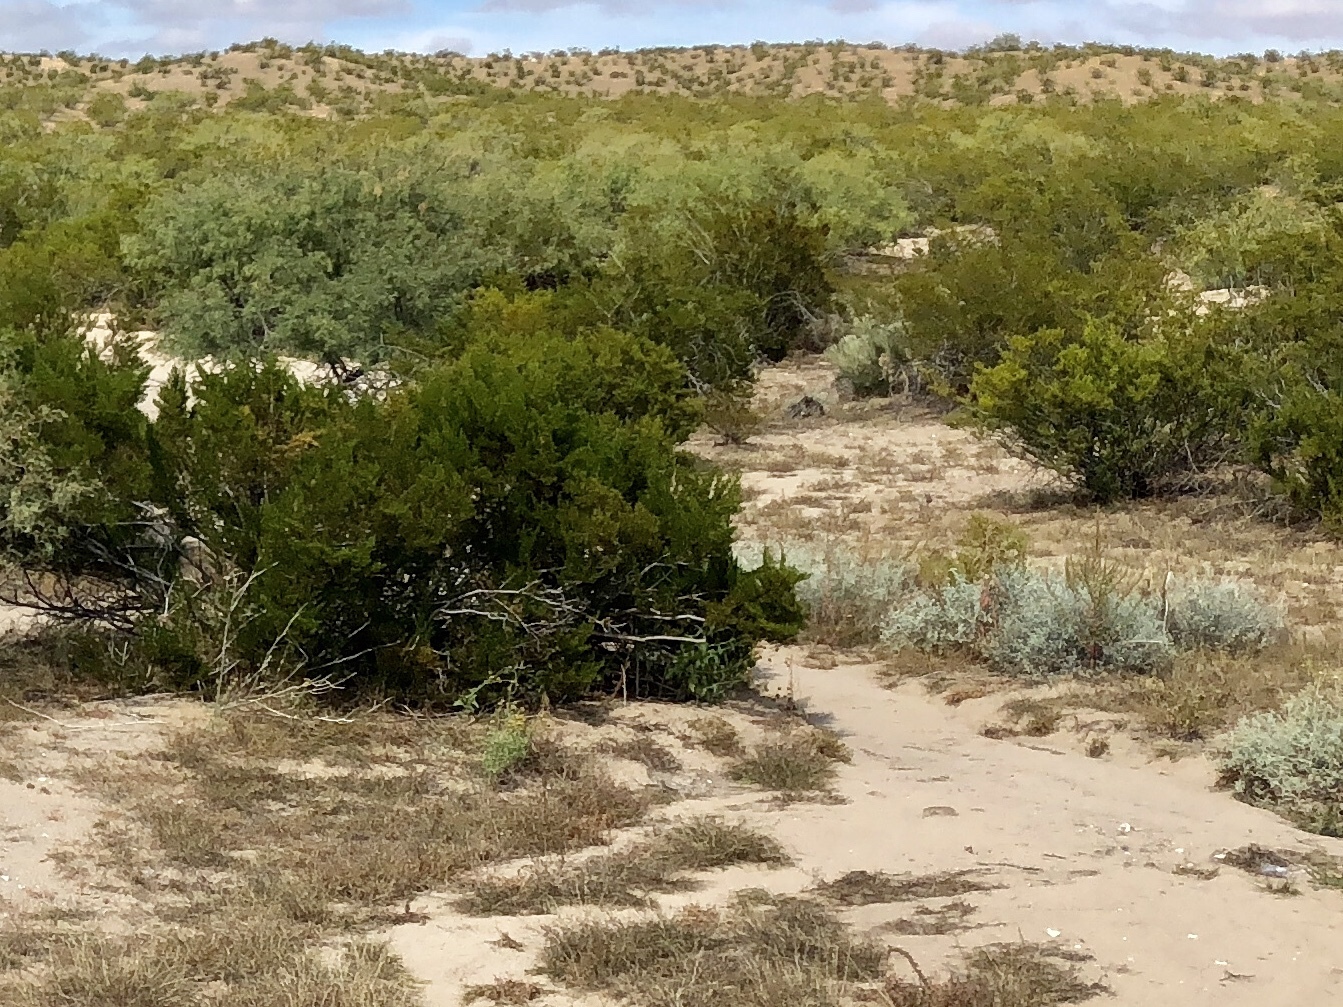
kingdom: Plantae
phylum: Tracheophyta
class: Magnoliopsida
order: Zygophyllales
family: Zygophyllaceae
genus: Larrea
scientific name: Larrea tridentata
